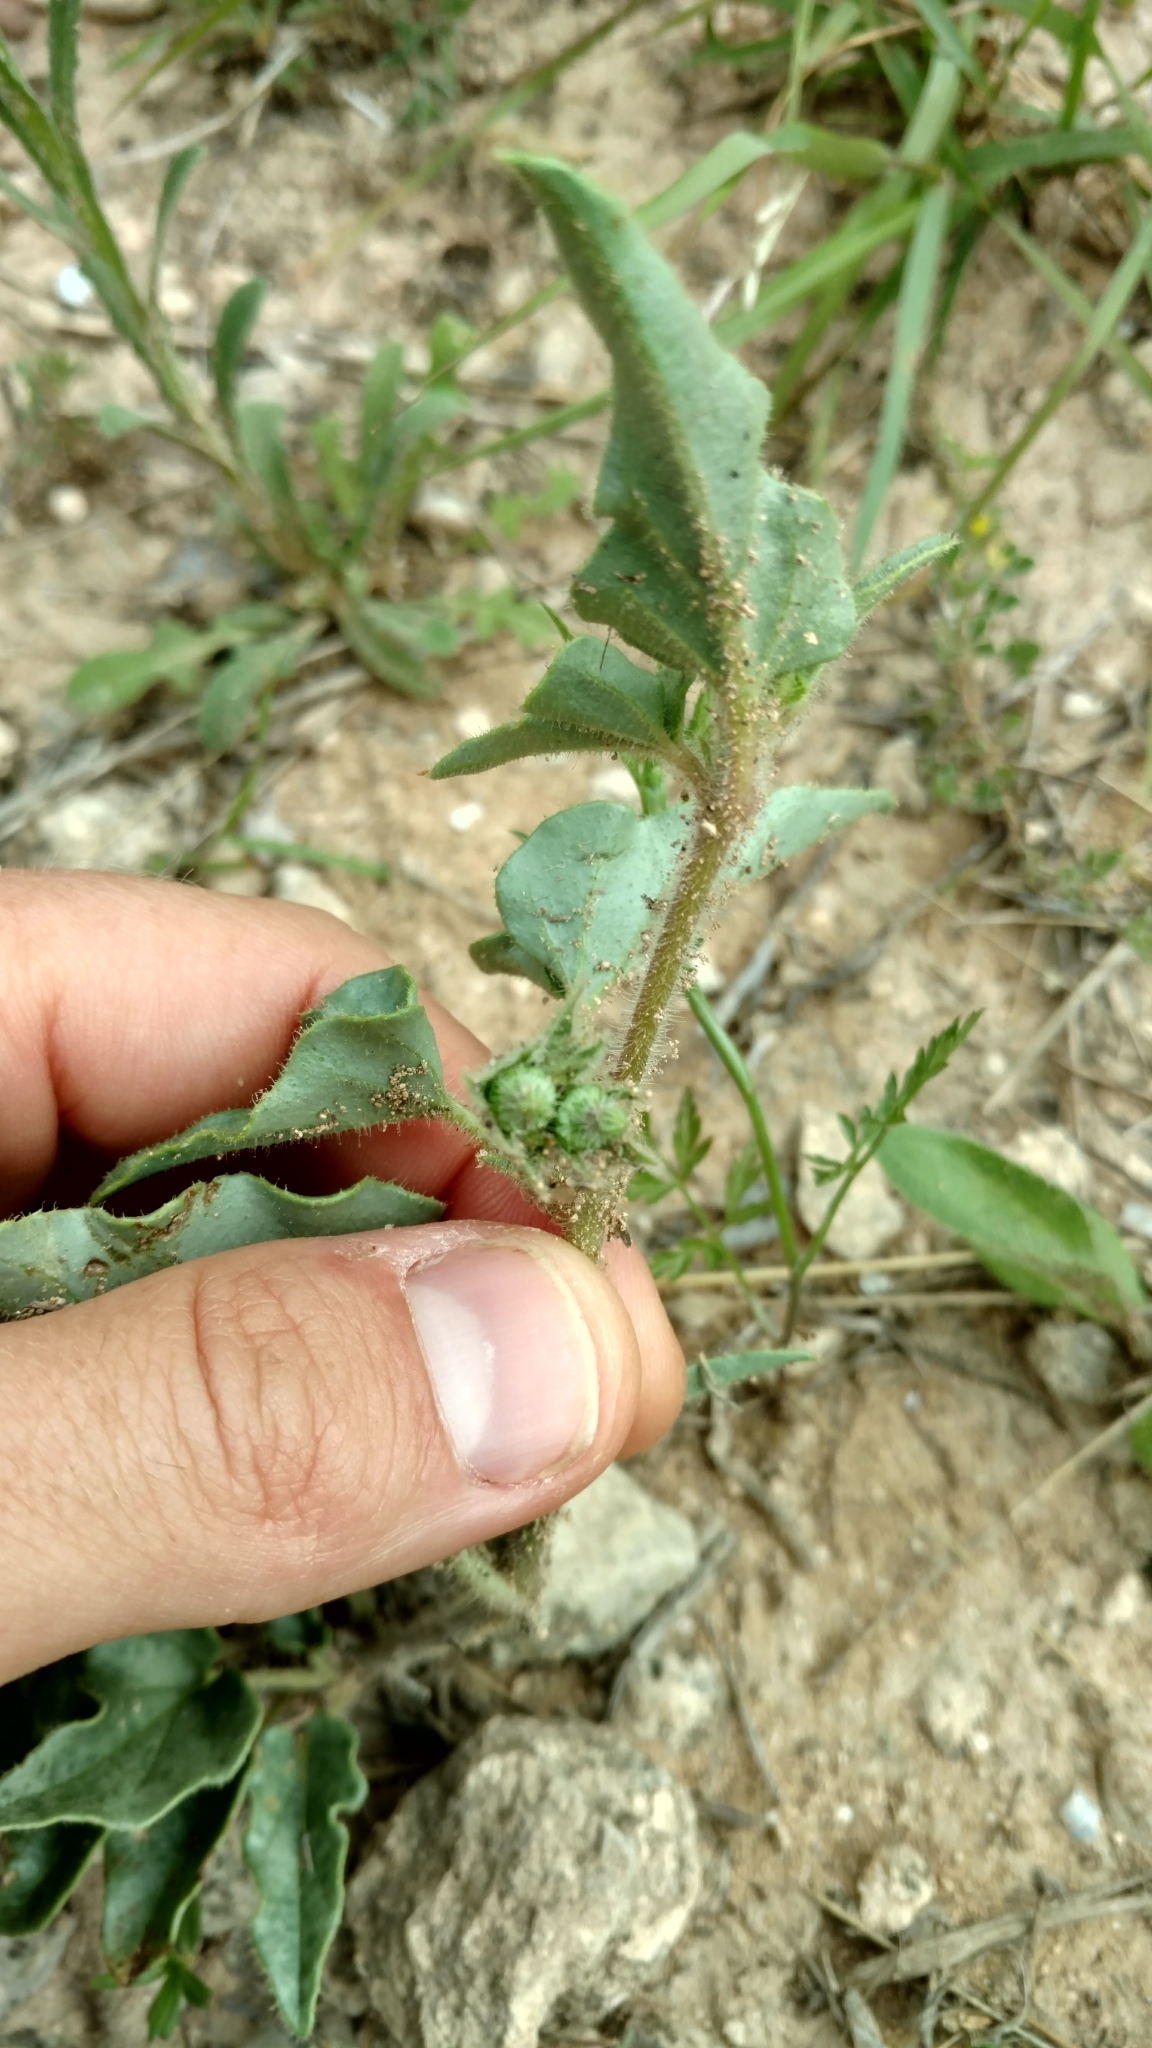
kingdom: Plantae
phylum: Tracheophyta
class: Magnoliopsida
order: Caryophyllales
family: Nyctaginaceae
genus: Nyctaginia
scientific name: Nyctaginia capitata
